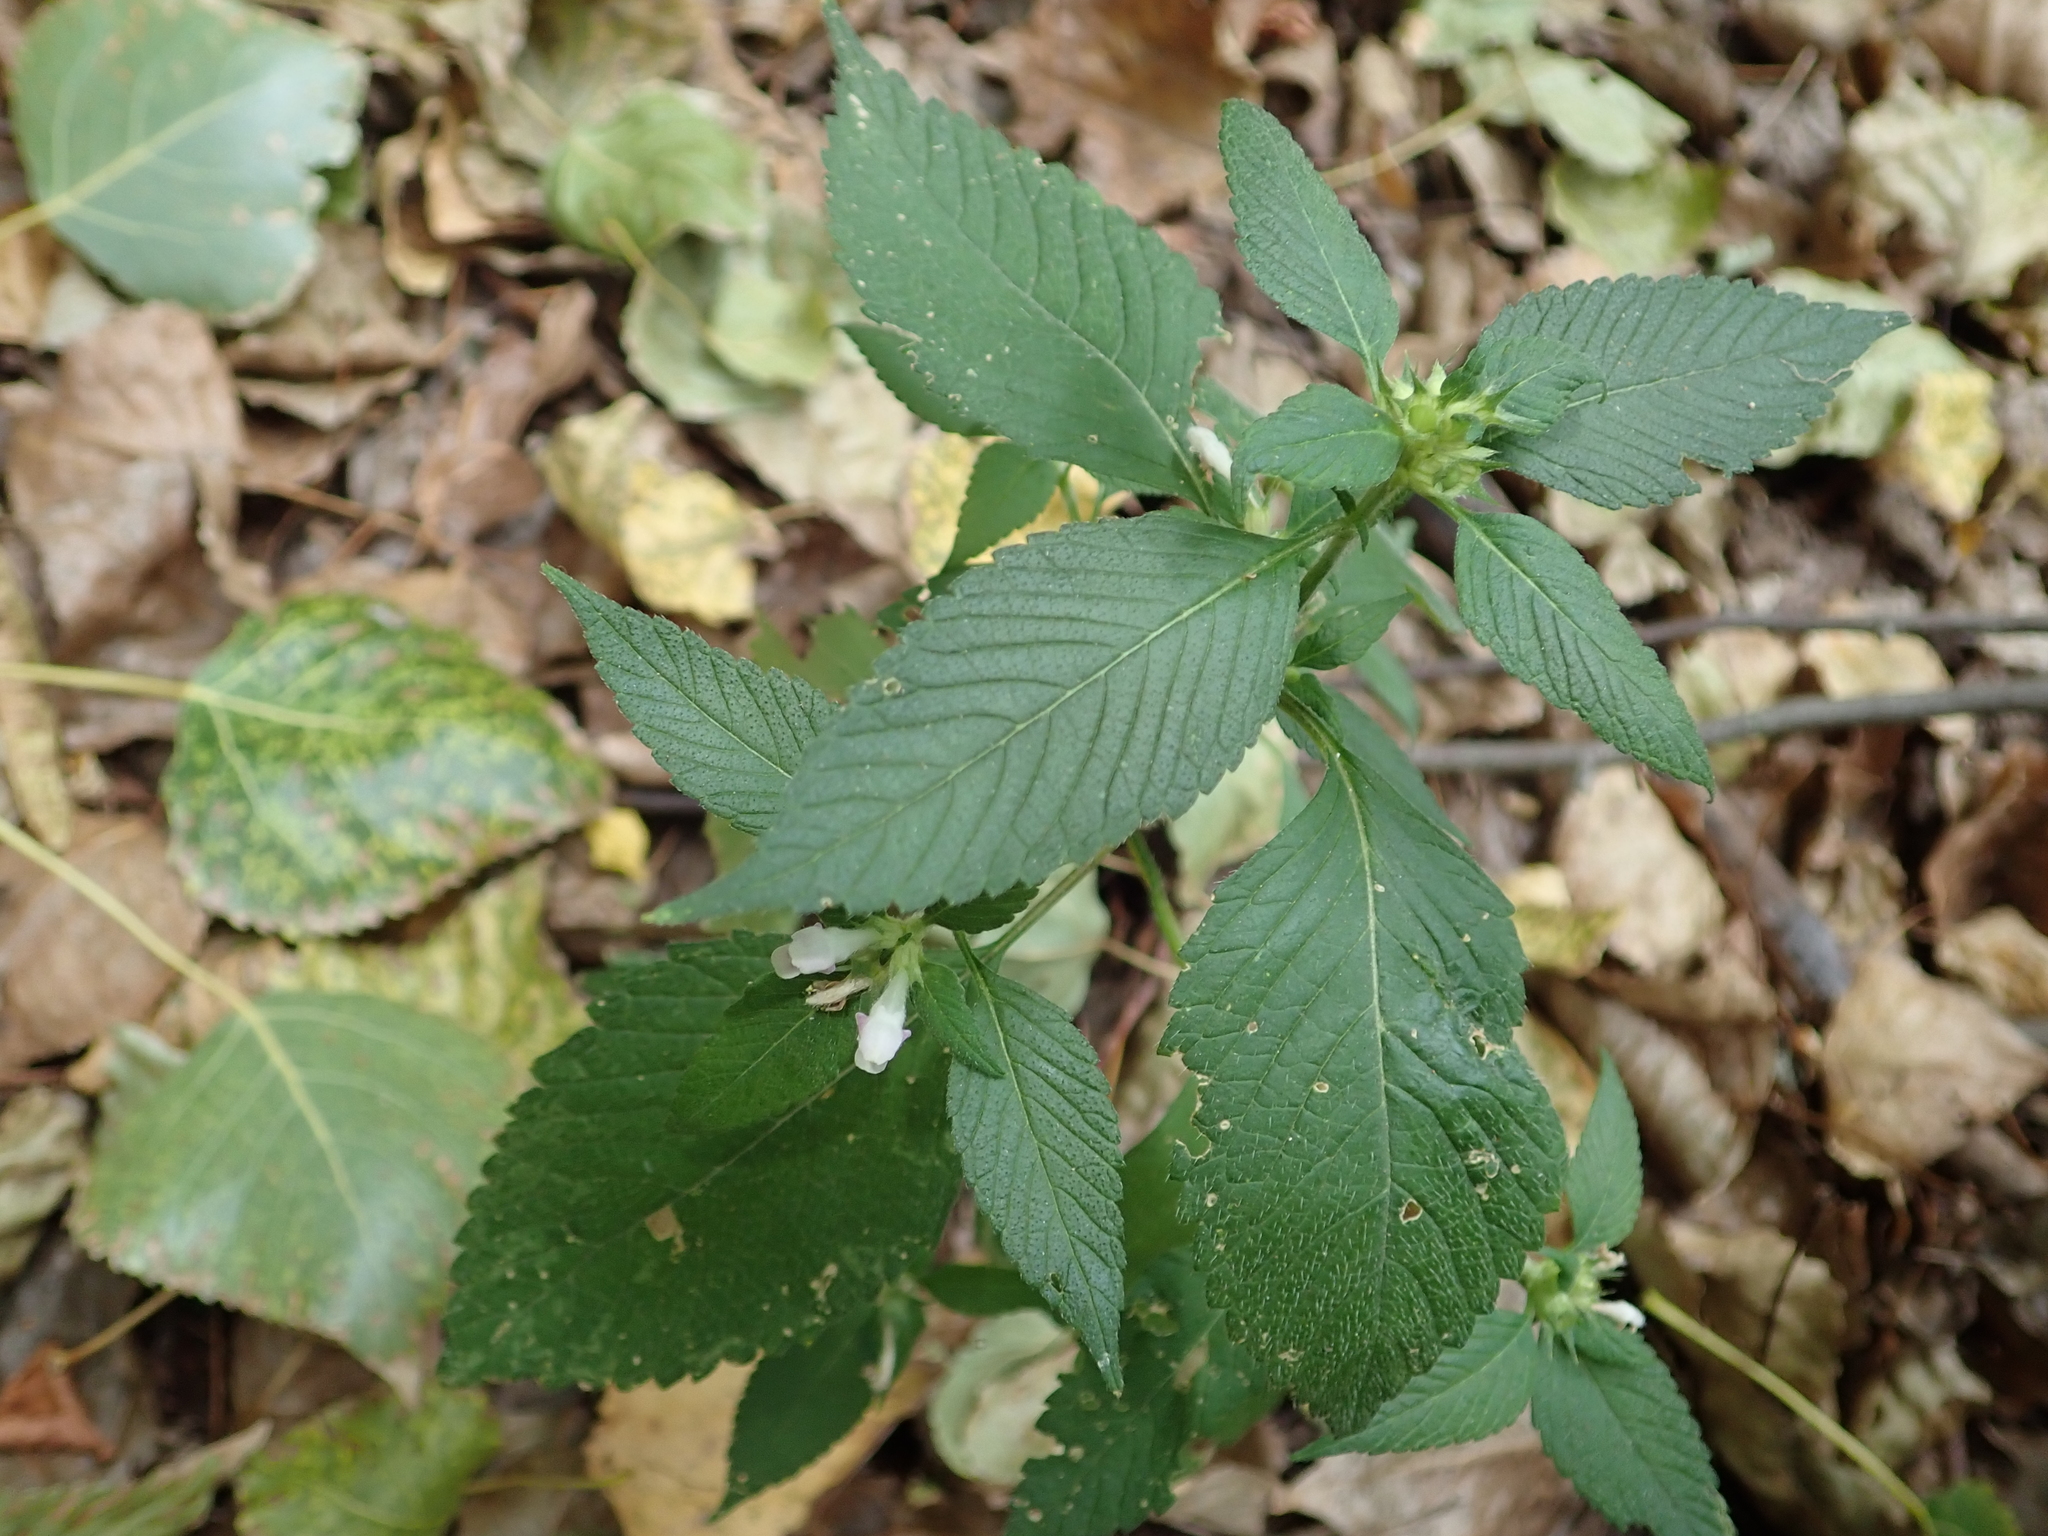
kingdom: Plantae
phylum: Tracheophyta
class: Magnoliopsida
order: Lamiales
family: Lamiaceae
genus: Galeopsis
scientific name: Galeopsis tetrahit
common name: Common hemp-nettle
